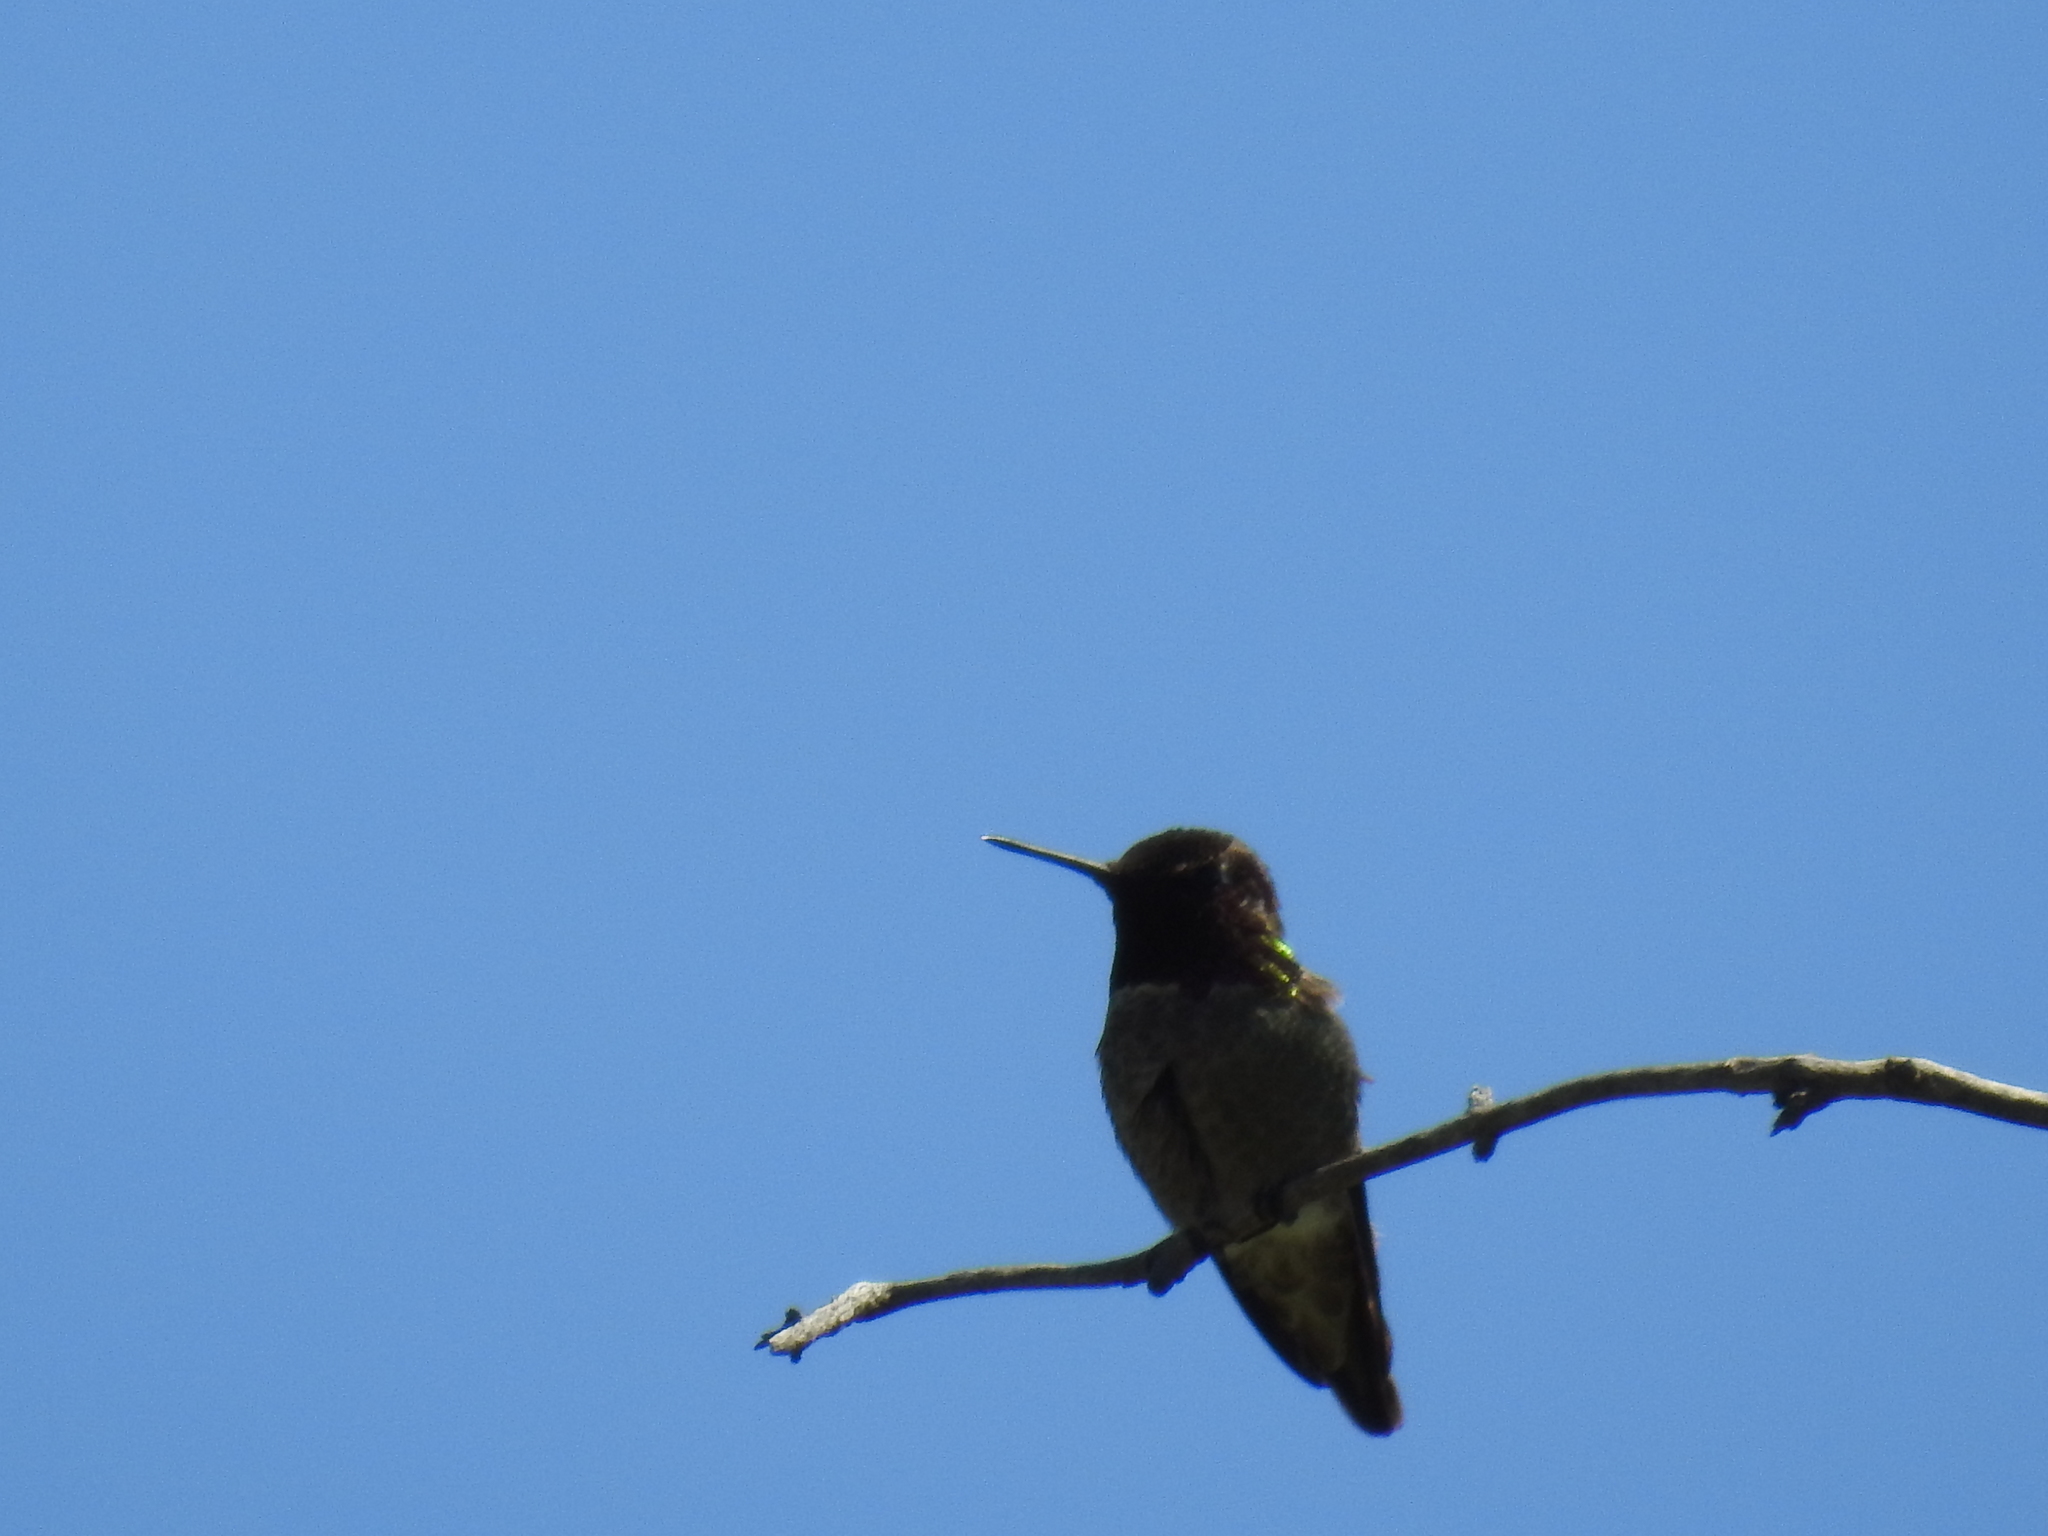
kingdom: Animalia
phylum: Chordata
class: Aves
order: Apodiformes
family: Trochilidae
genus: Calypte
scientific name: Calypte anna
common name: Anna's hummingbird
